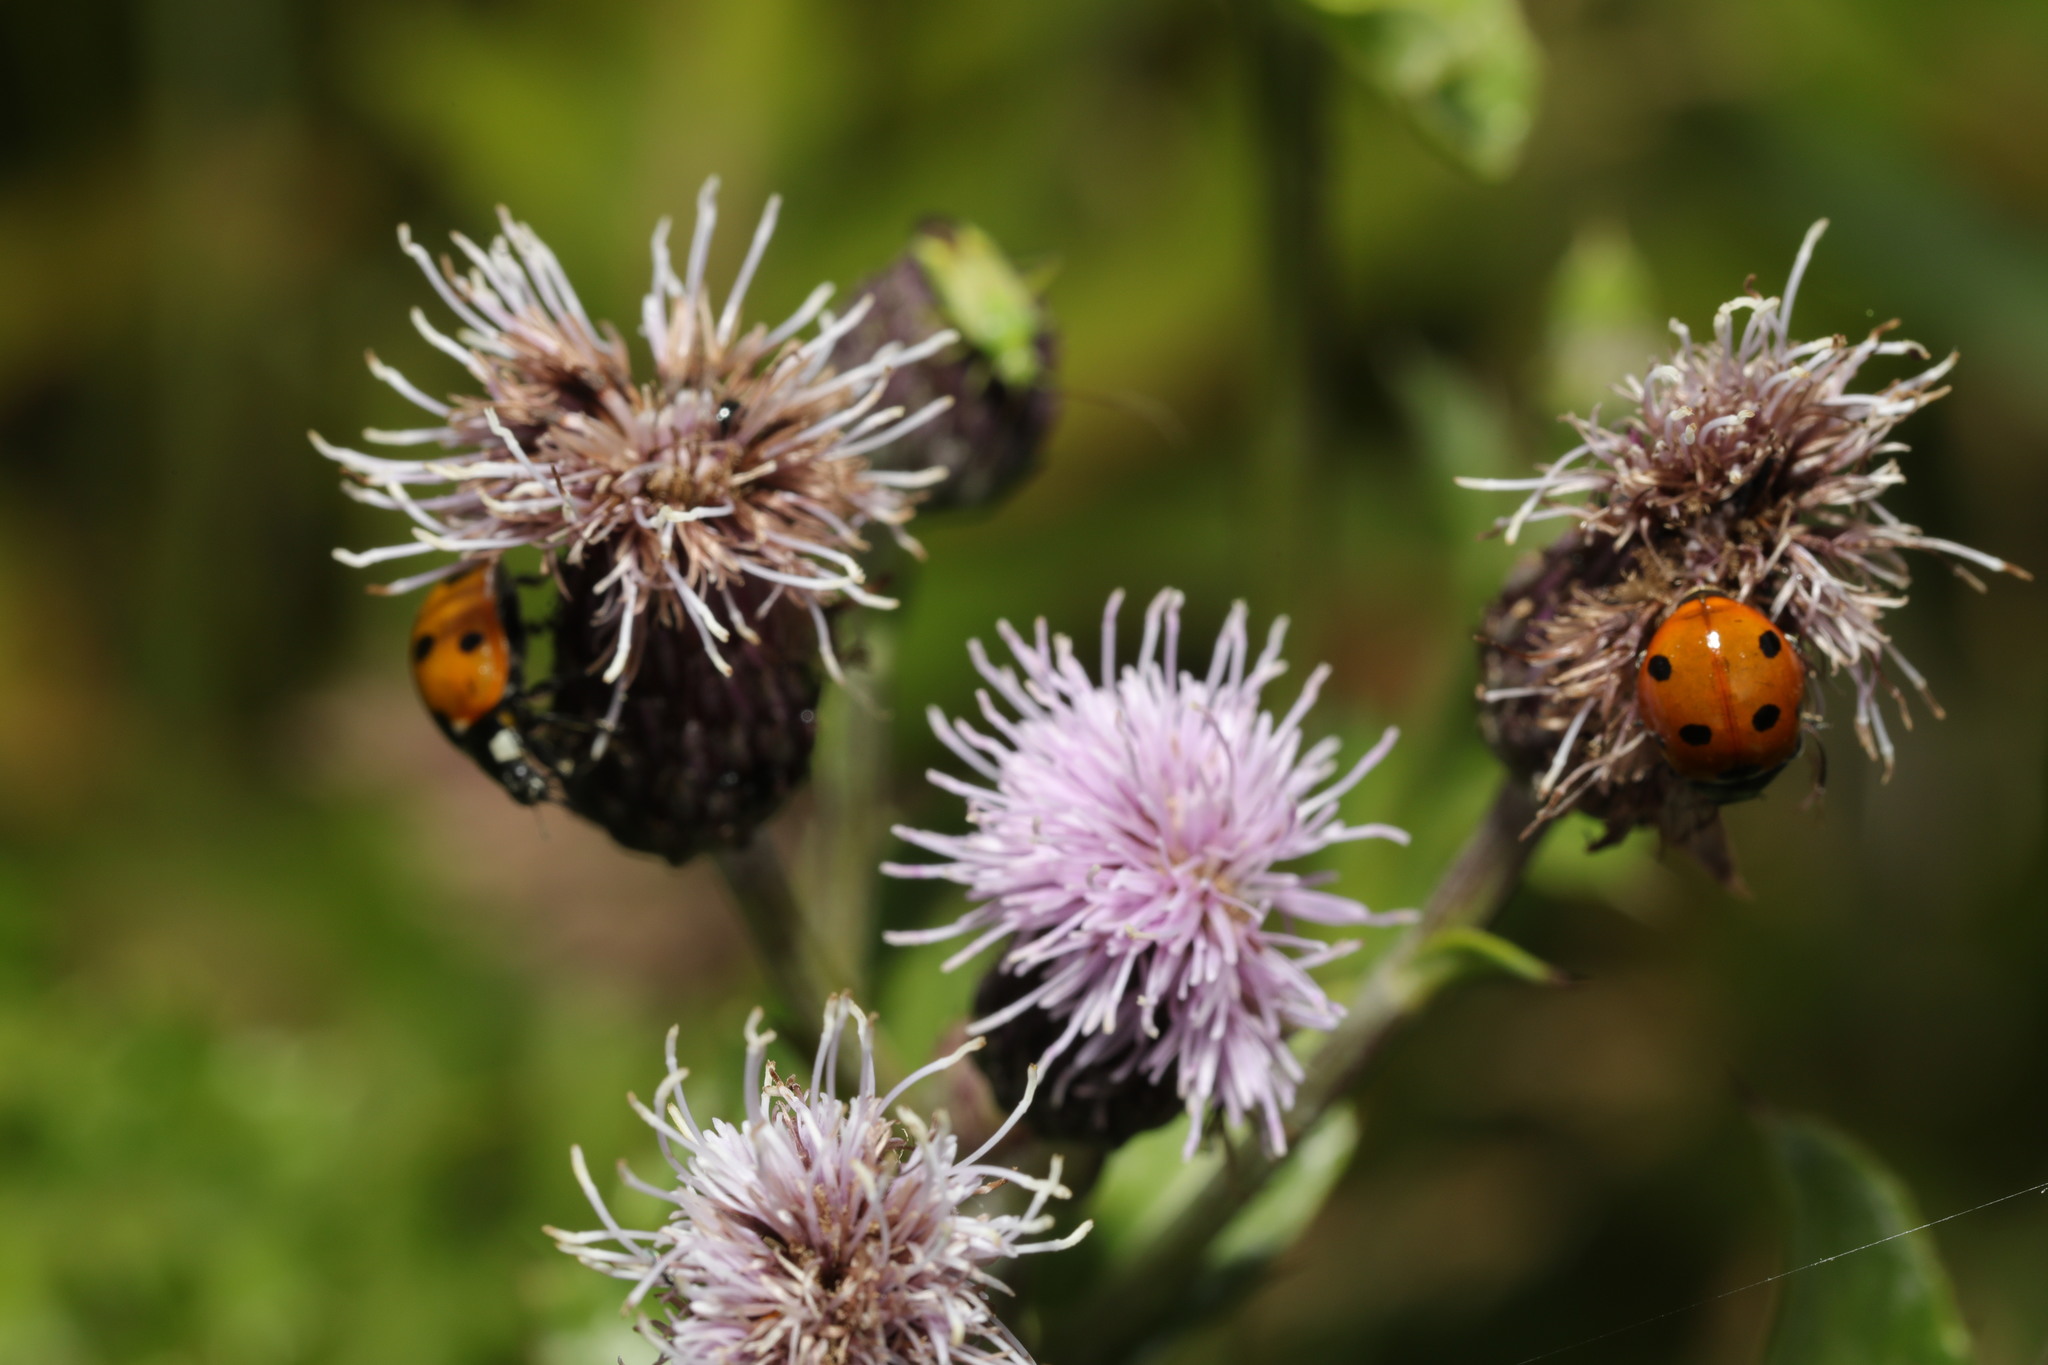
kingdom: Animalia
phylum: Arthropoda
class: Insecta
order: Coleoptera
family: Coccinellidae
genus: Coccinella
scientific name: Coccinella septempunctata
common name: Sevenspotted lady beetle
